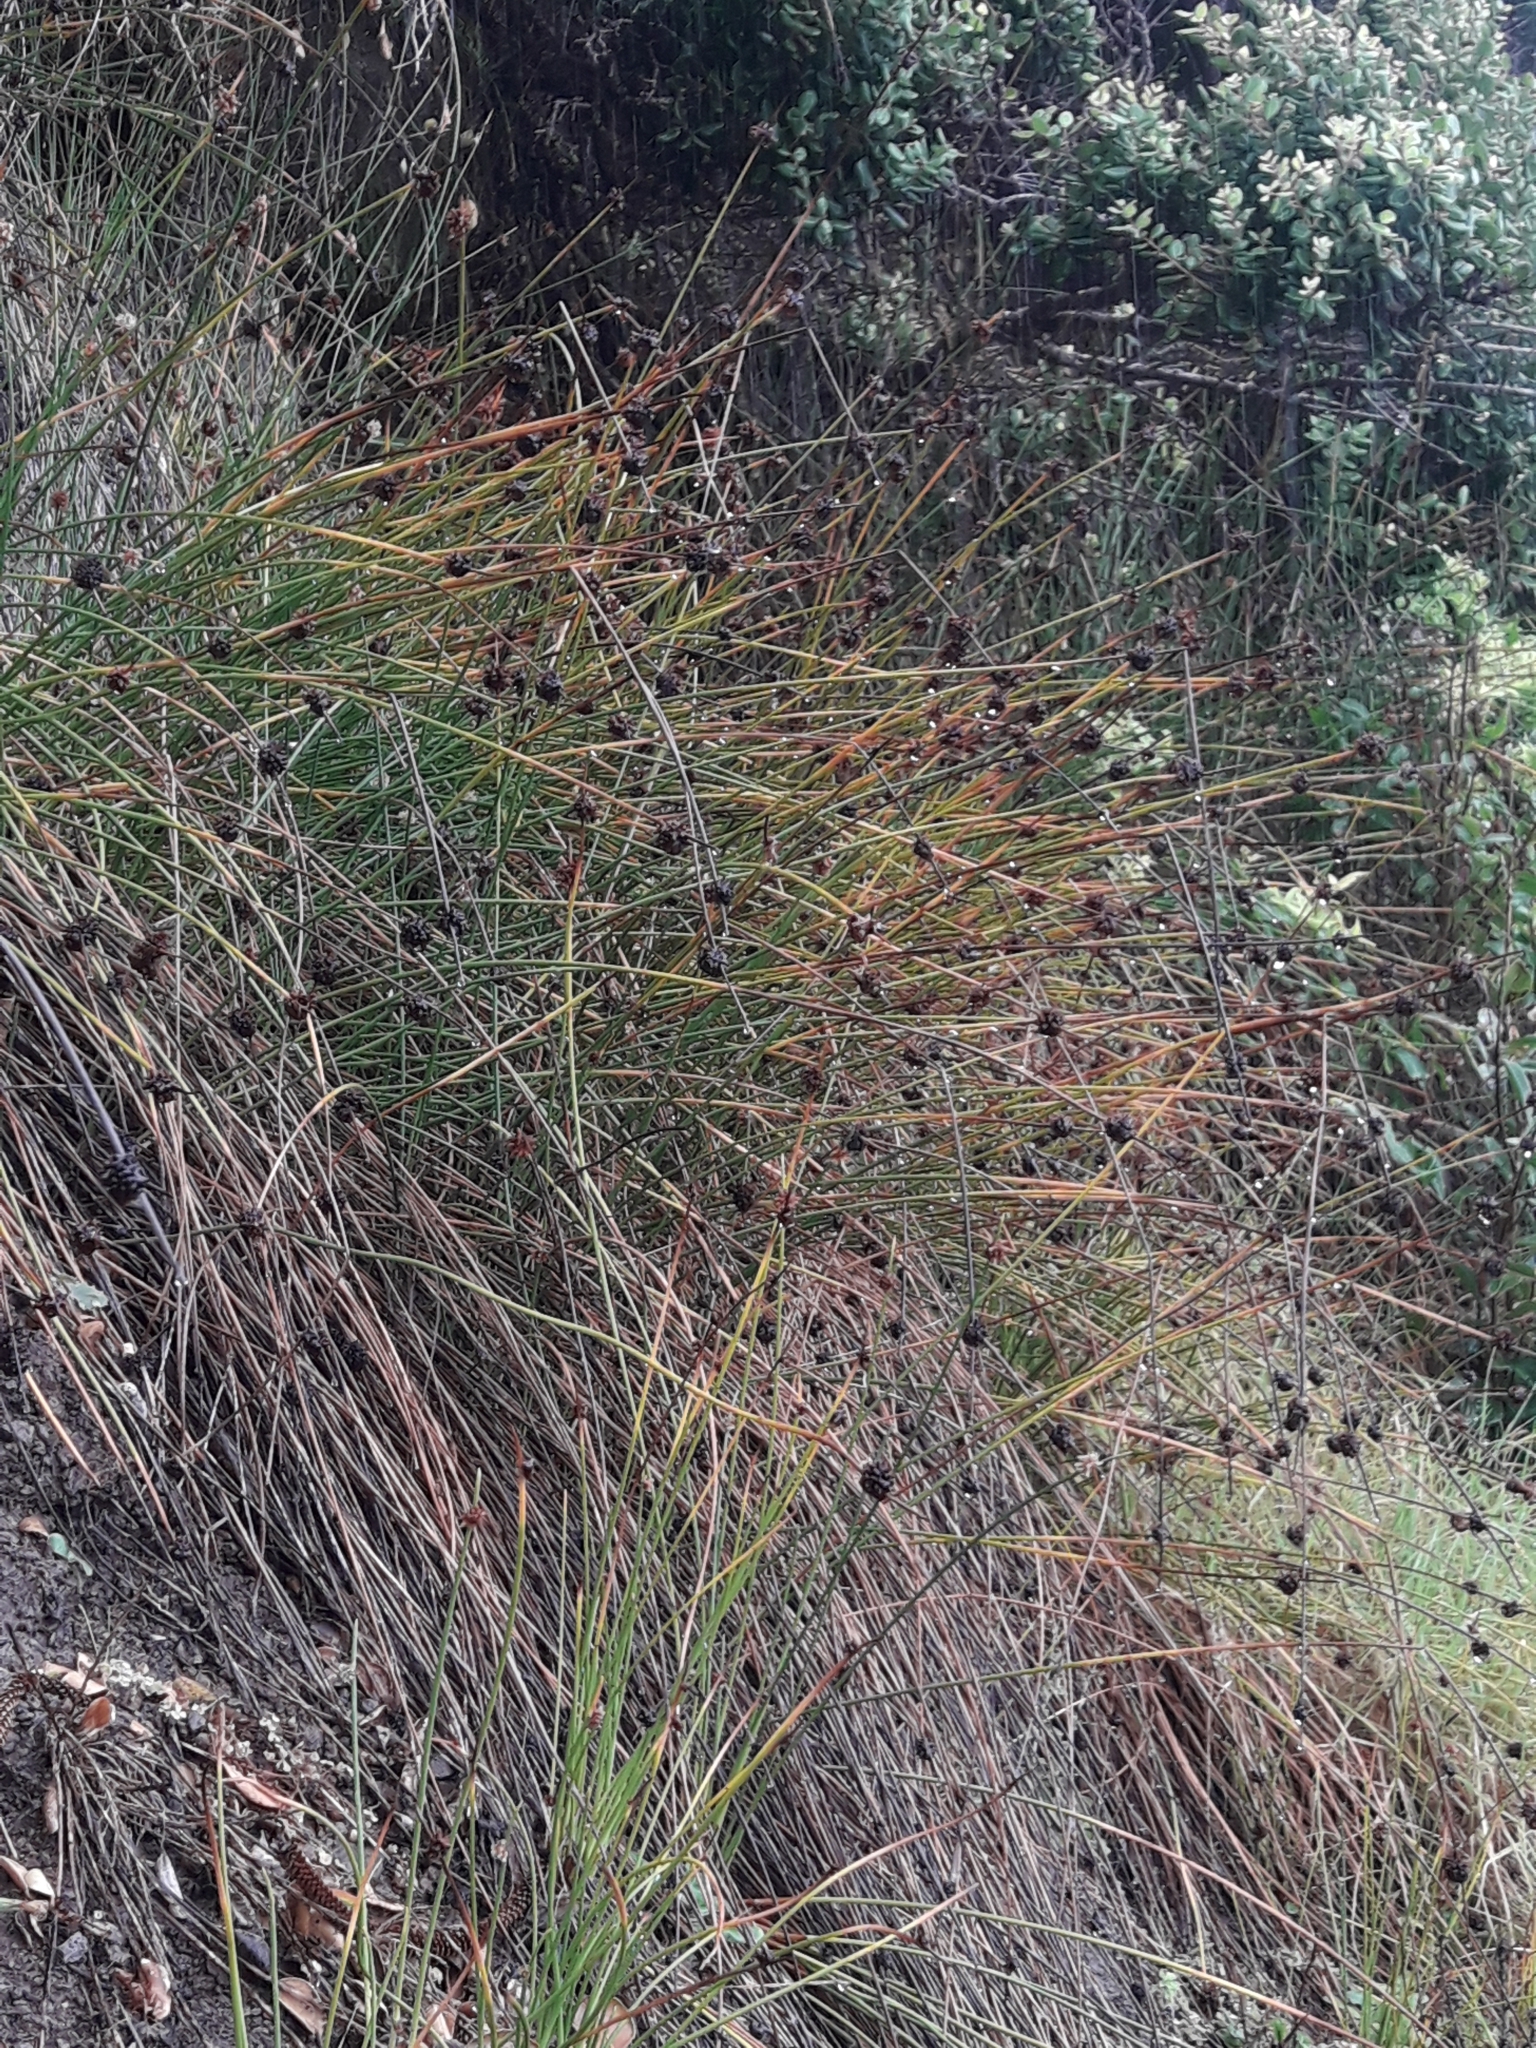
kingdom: Plantae
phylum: Tracheophyta
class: Liliopsida
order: Poales
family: Cyperaceae
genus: Ficinia
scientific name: Ficinia nodosa
